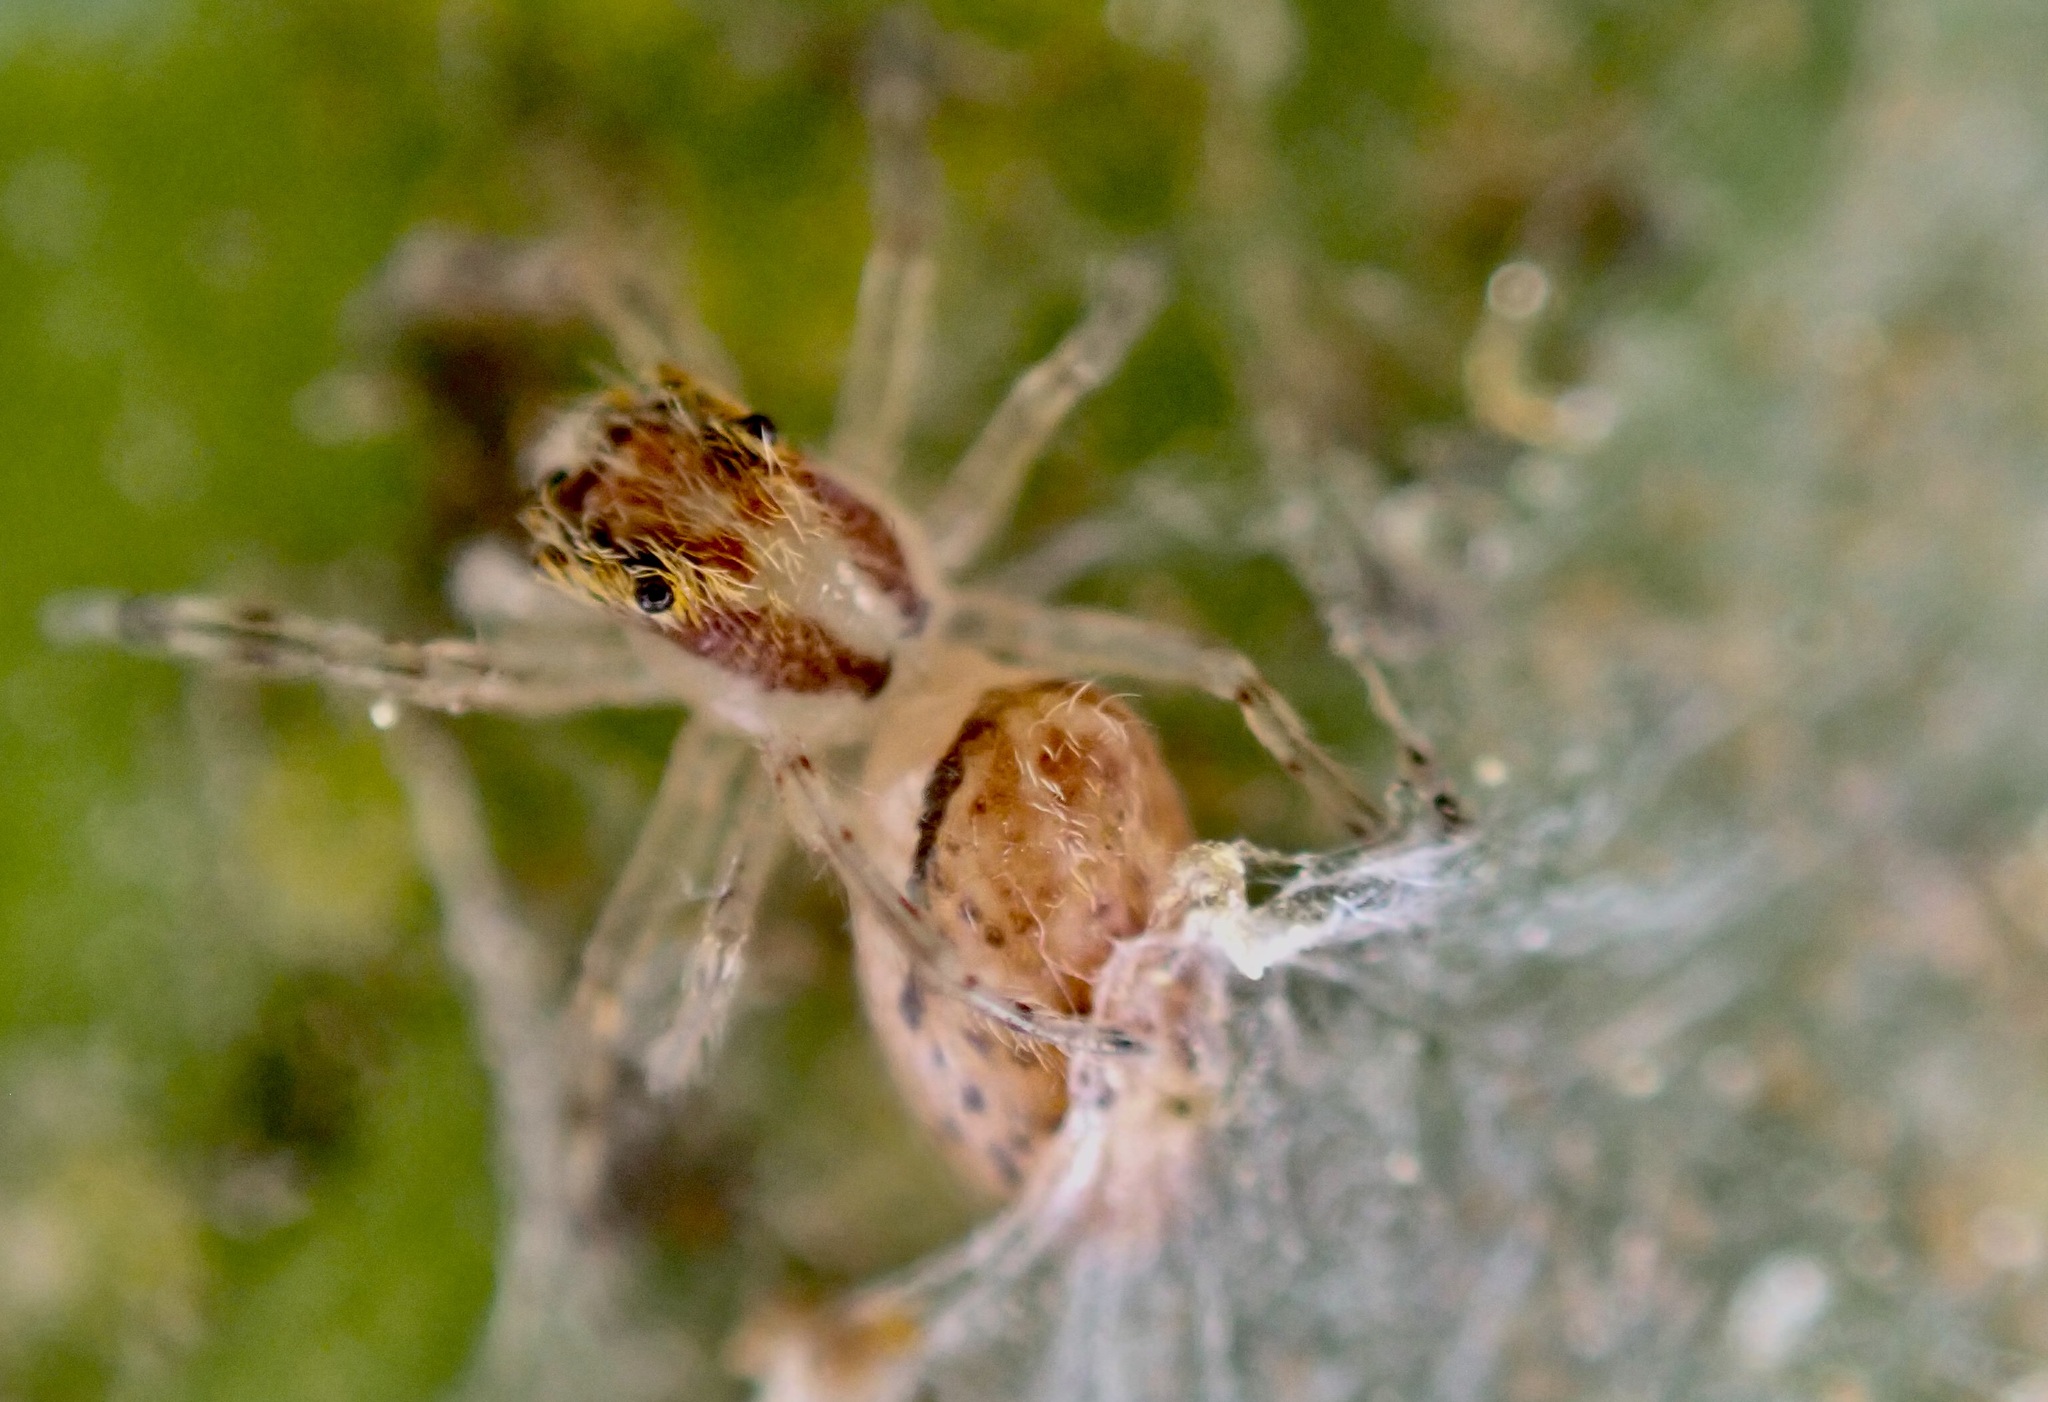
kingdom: Animalia
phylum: Arthropoda
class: Arachnida
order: Araneae
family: Salticidae
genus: Helpis
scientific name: Helpis minitabunda
